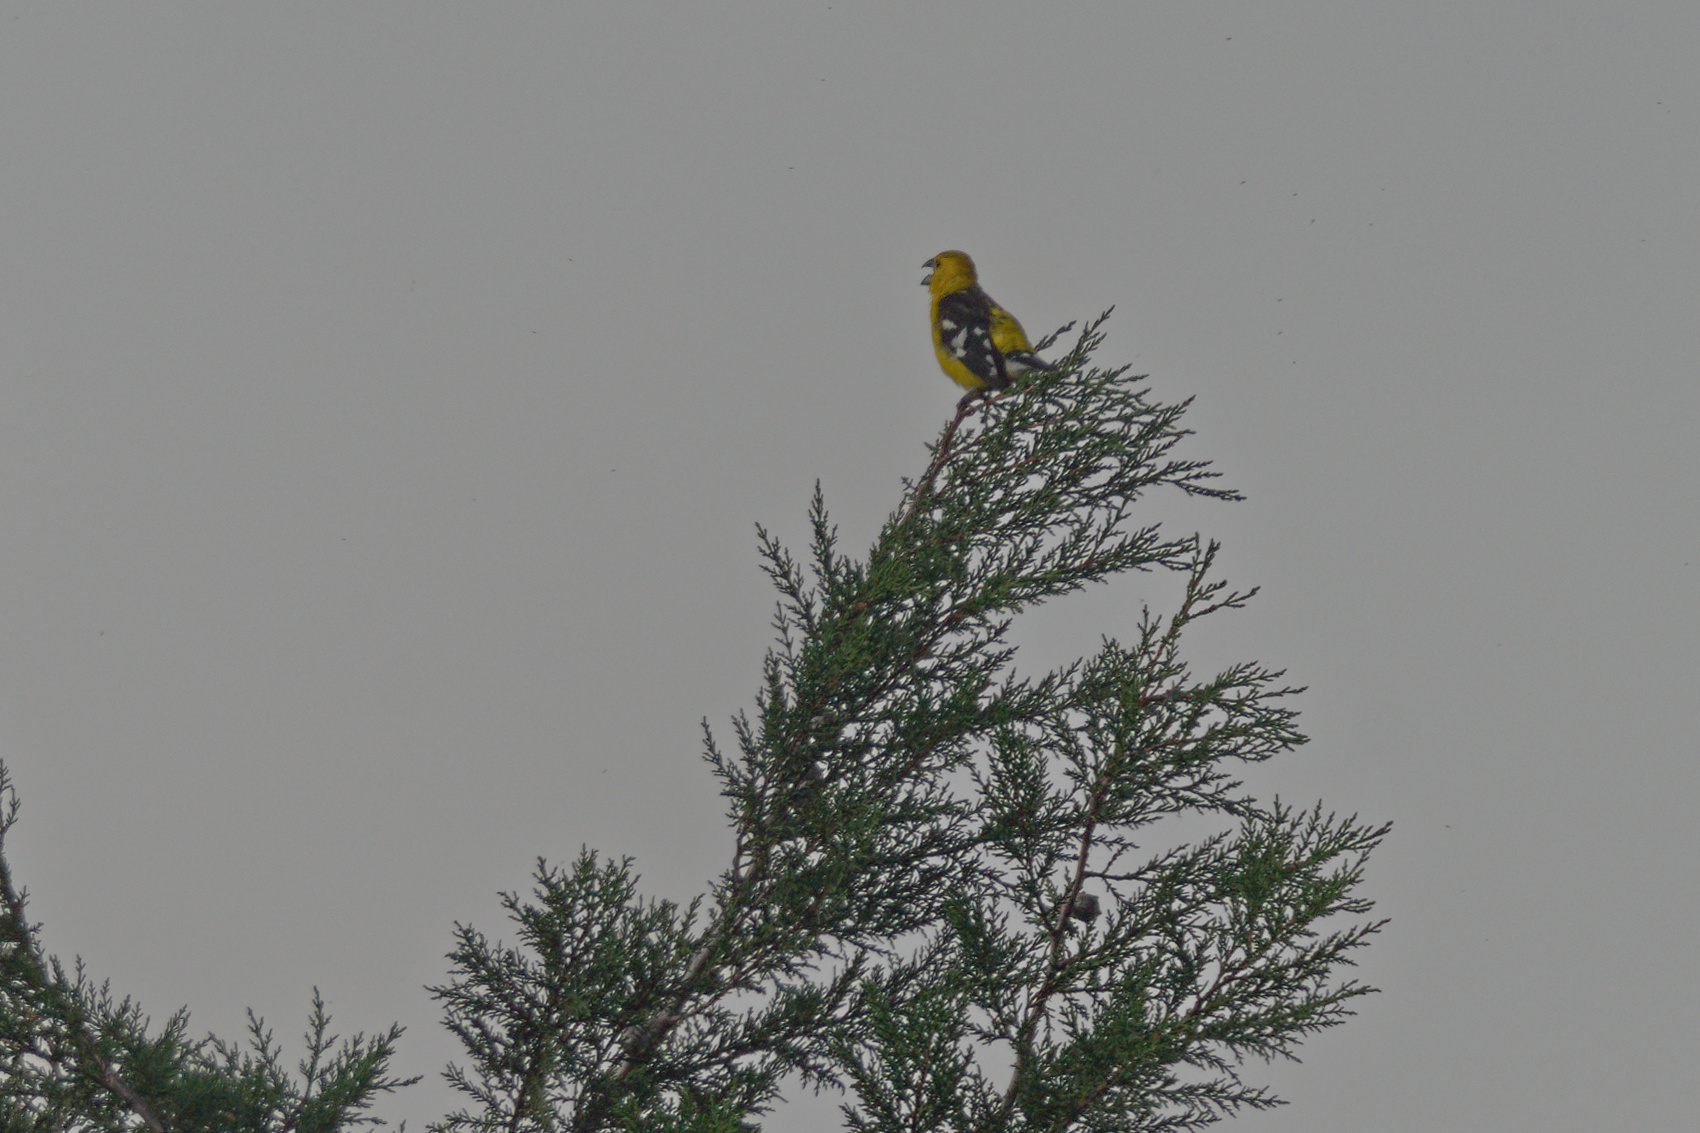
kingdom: Animalia
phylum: Chordata
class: Aves
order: Passeriformes
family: Cardinalidae
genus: Pheucticus
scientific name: Pheucticus chrysogaster
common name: Golden grosbeak
